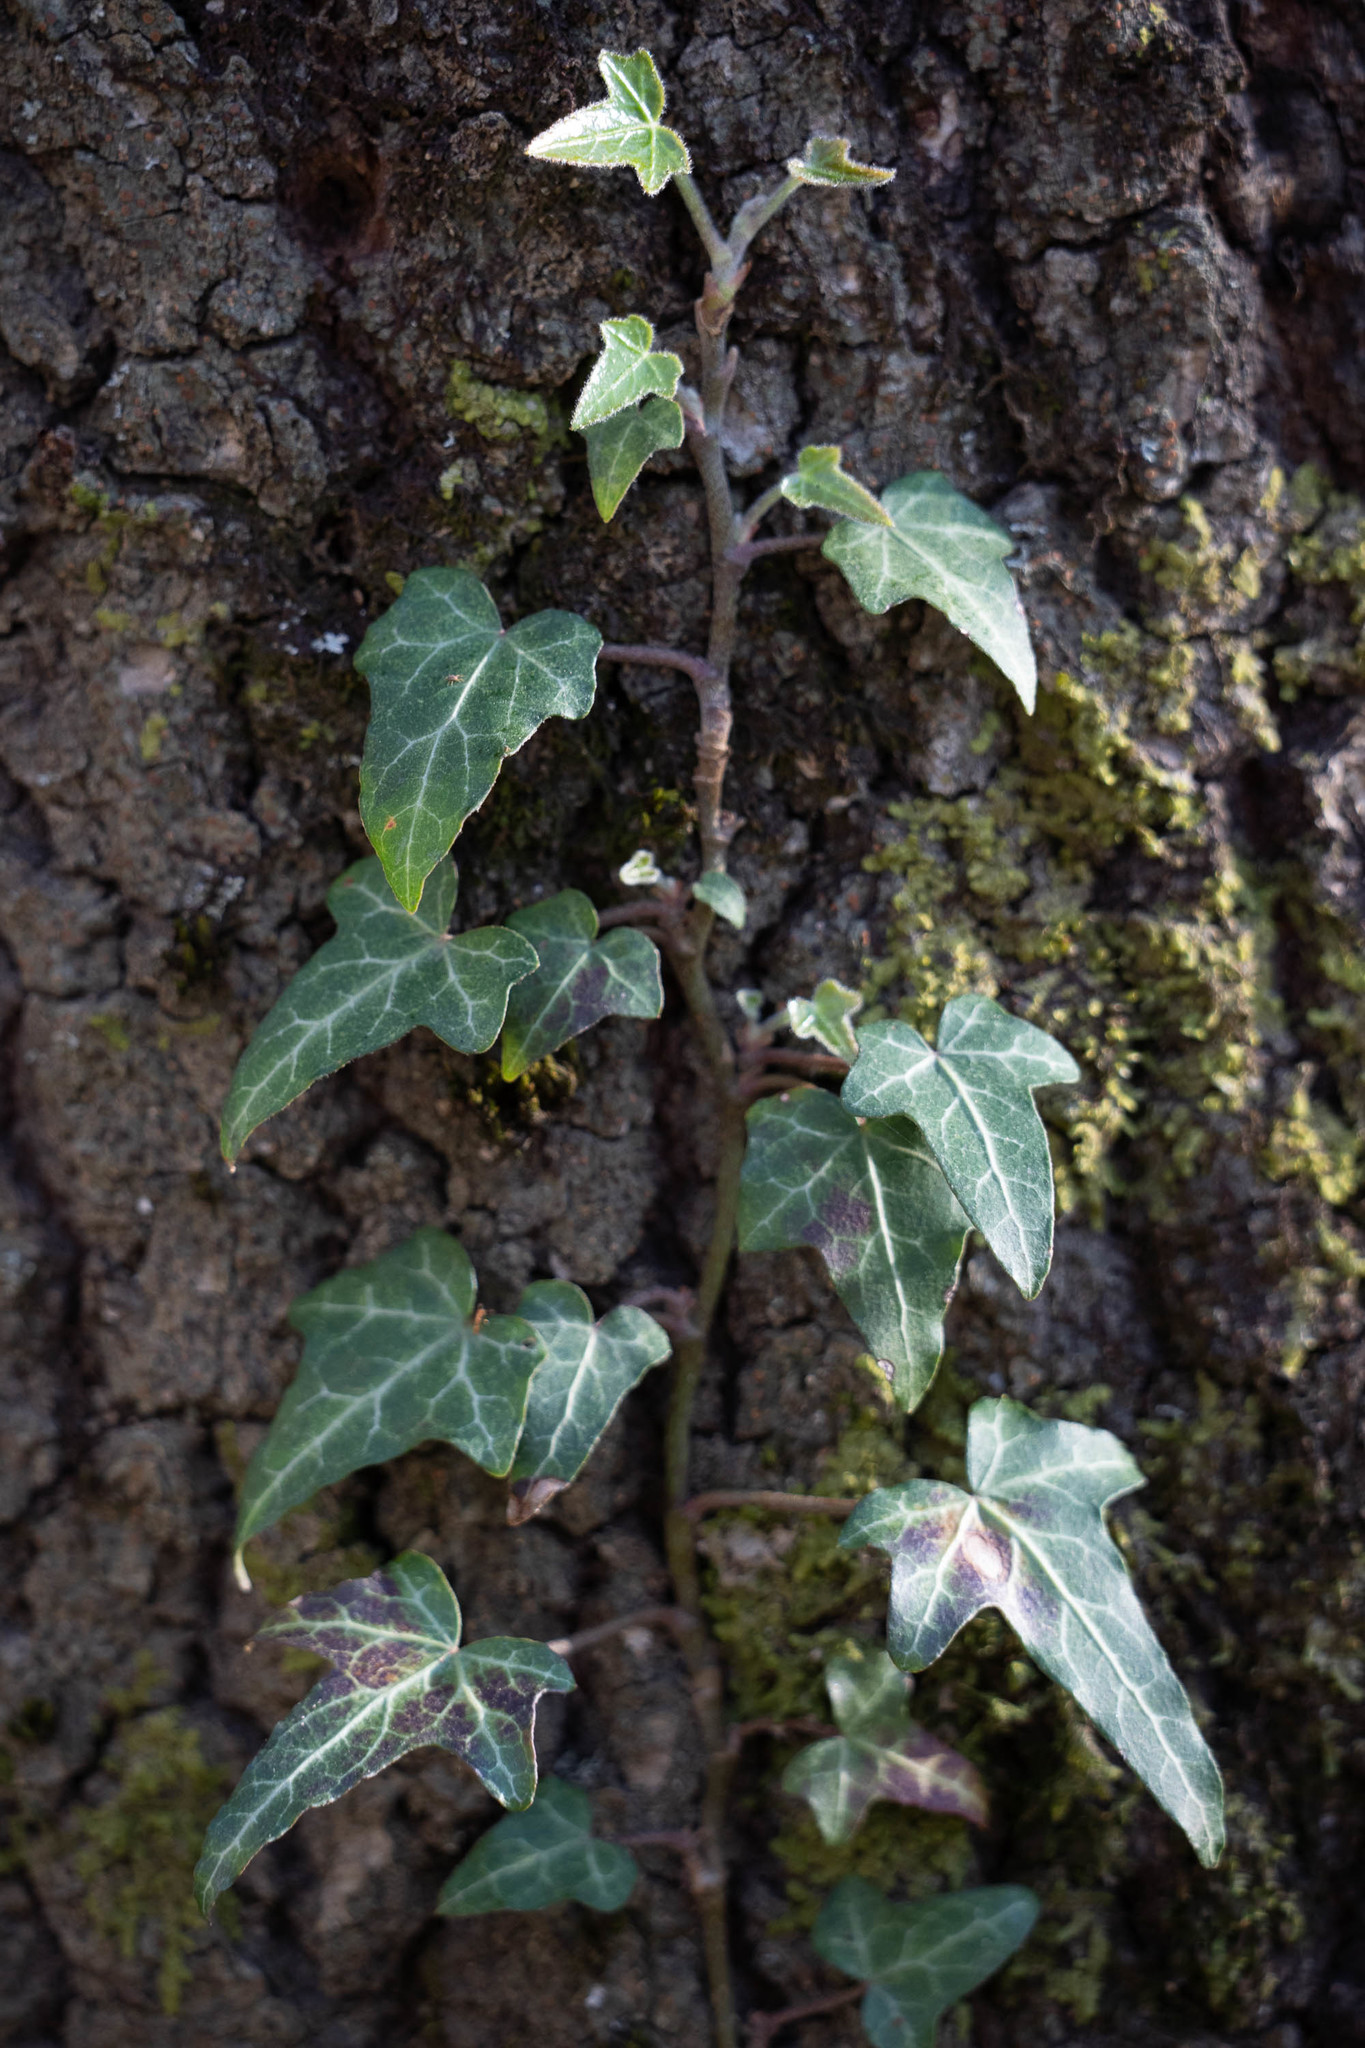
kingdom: Plantae
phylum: Tracheophyta
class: Magnoliopsida
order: Apiales
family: Araliaceae
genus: Hedera
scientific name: Hedera helix
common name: Ivy
